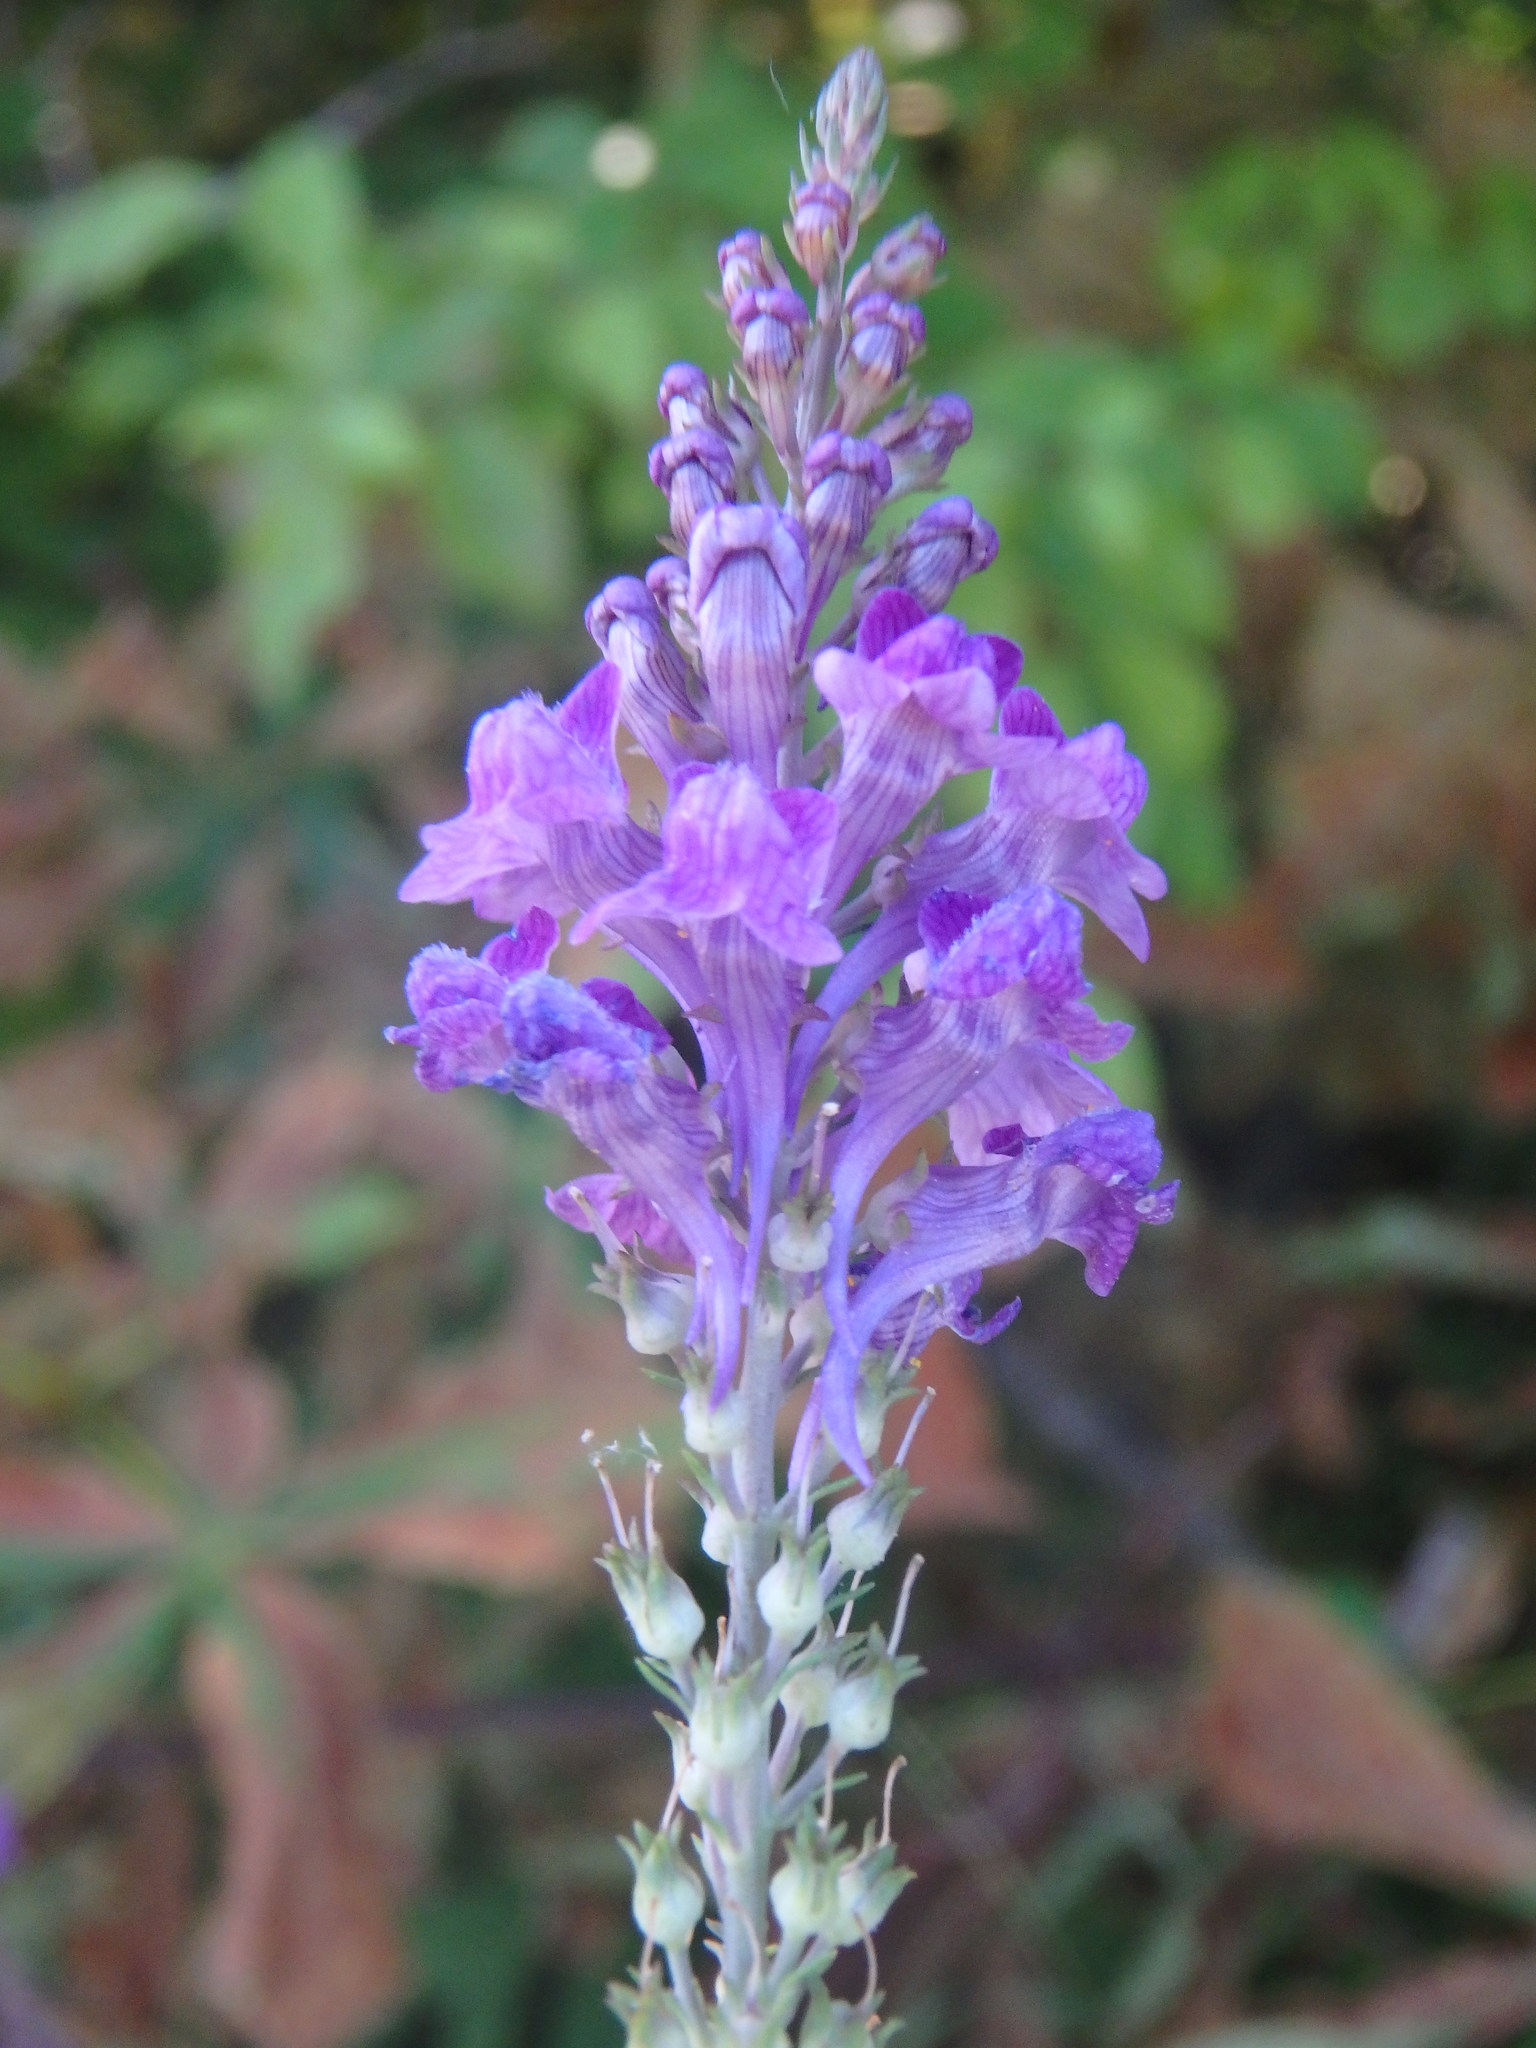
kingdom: Plantae
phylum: Tracheophyta
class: Magnoliopsida
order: Lamiales
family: Plantaginaceae
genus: Linaria
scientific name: Linaria purpurea
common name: Purple toadflax
